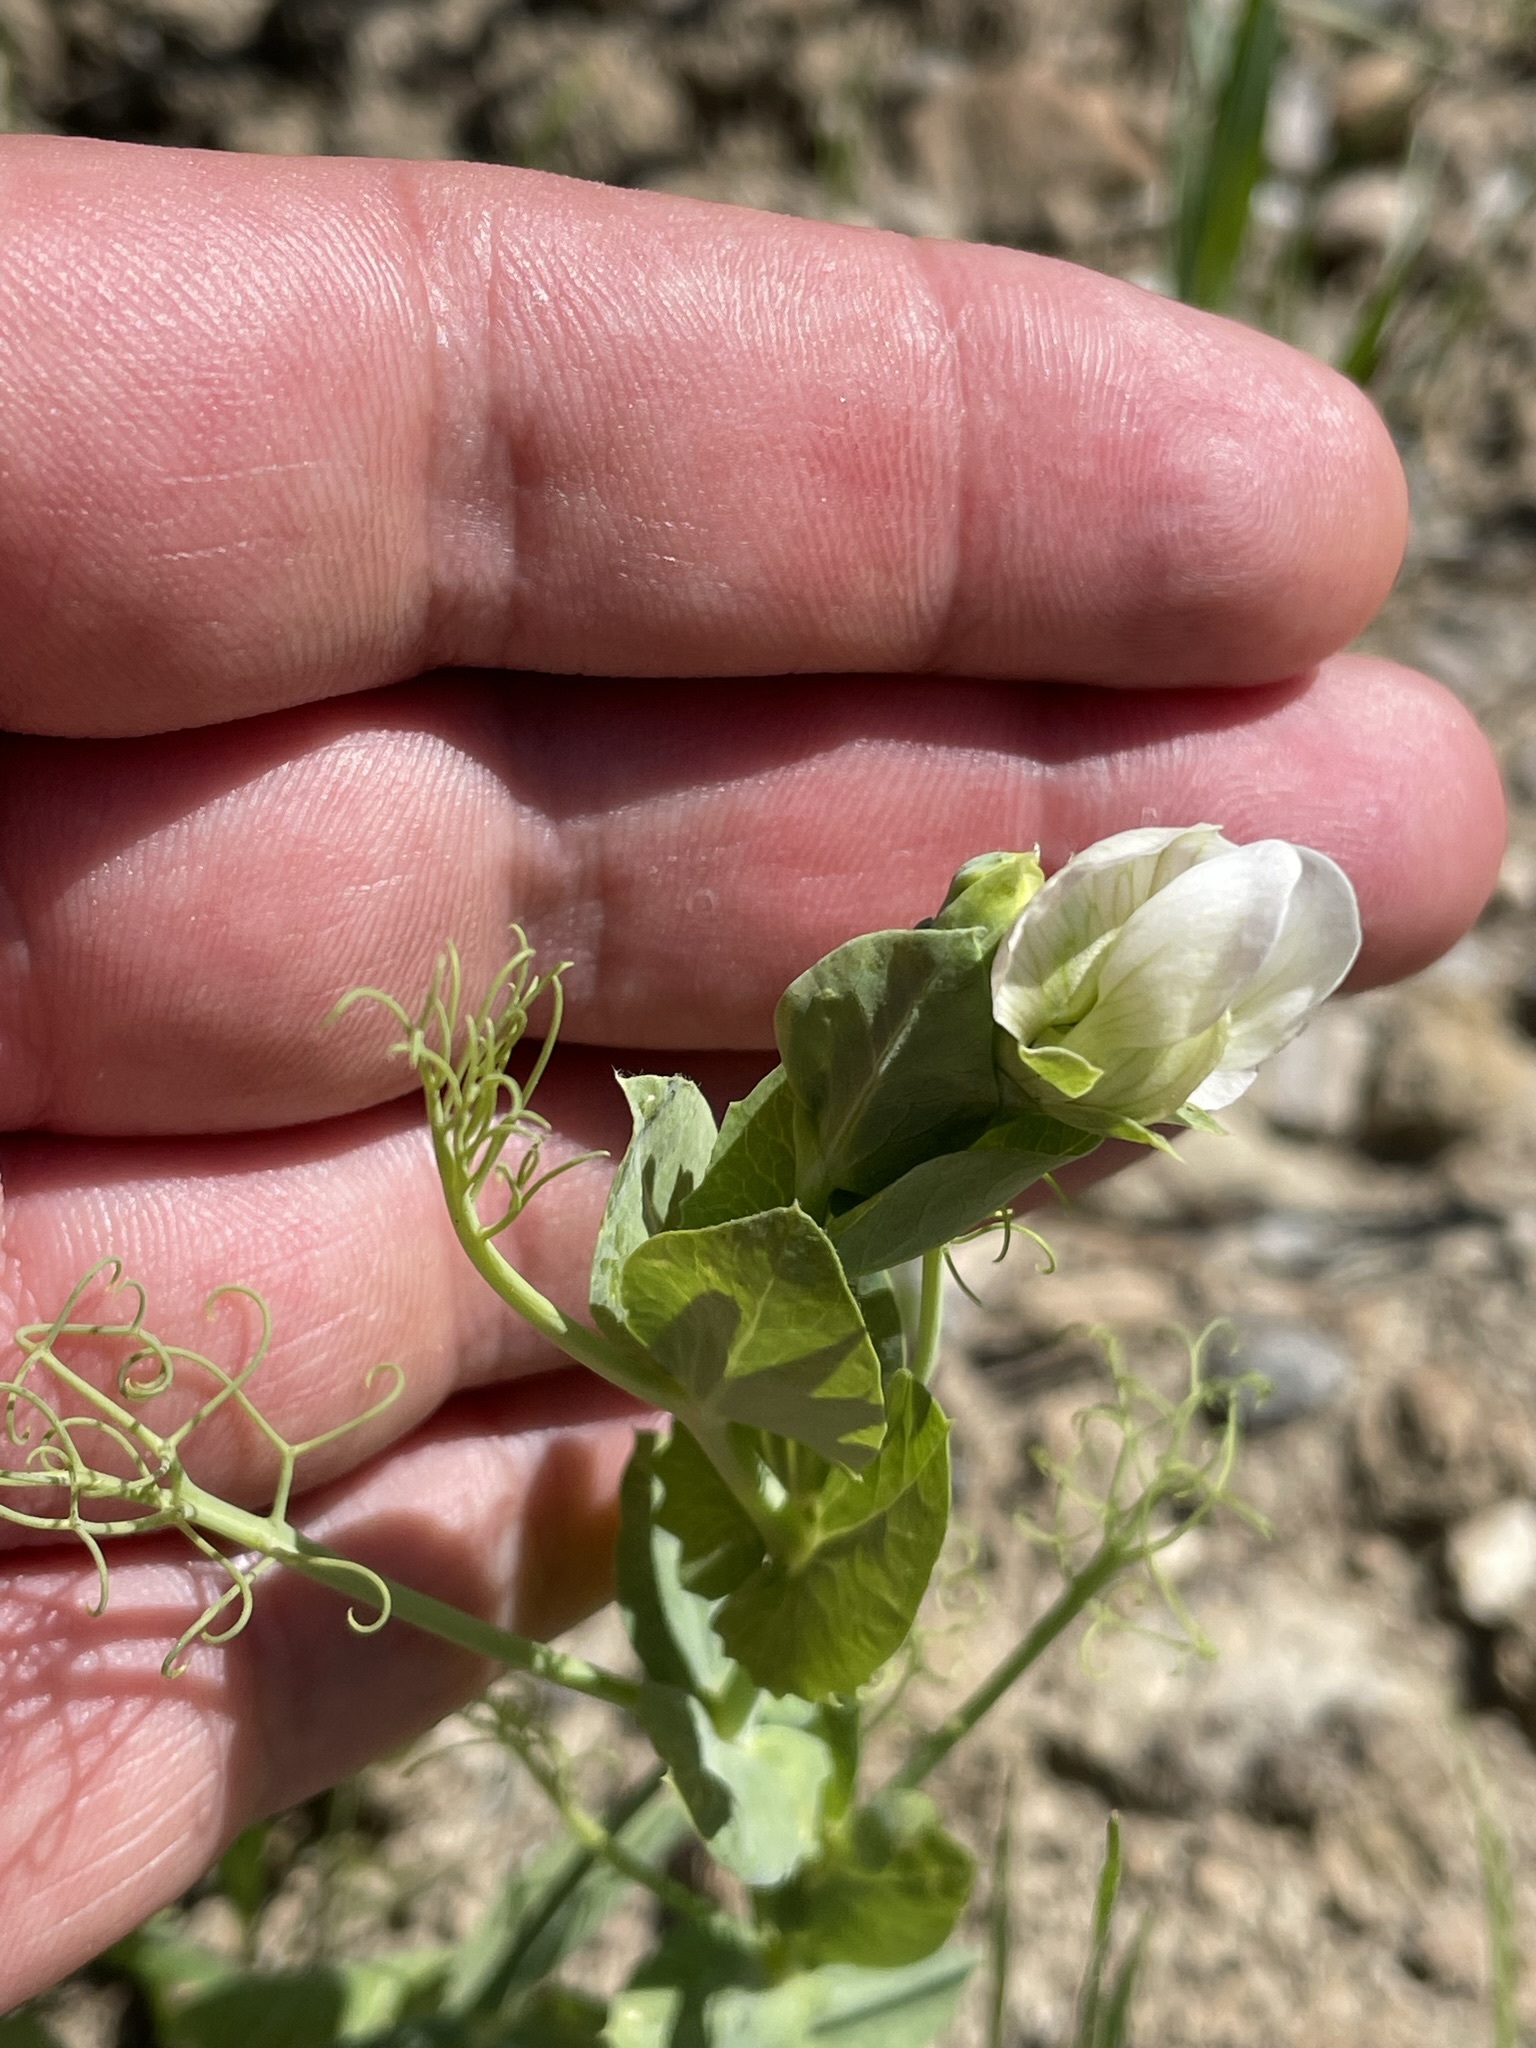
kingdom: Plantae
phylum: Tracheophyta
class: Magnoliopsida
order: Fabales
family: Fabaceae
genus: Lathyrus
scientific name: Lathyrus oleraceus
